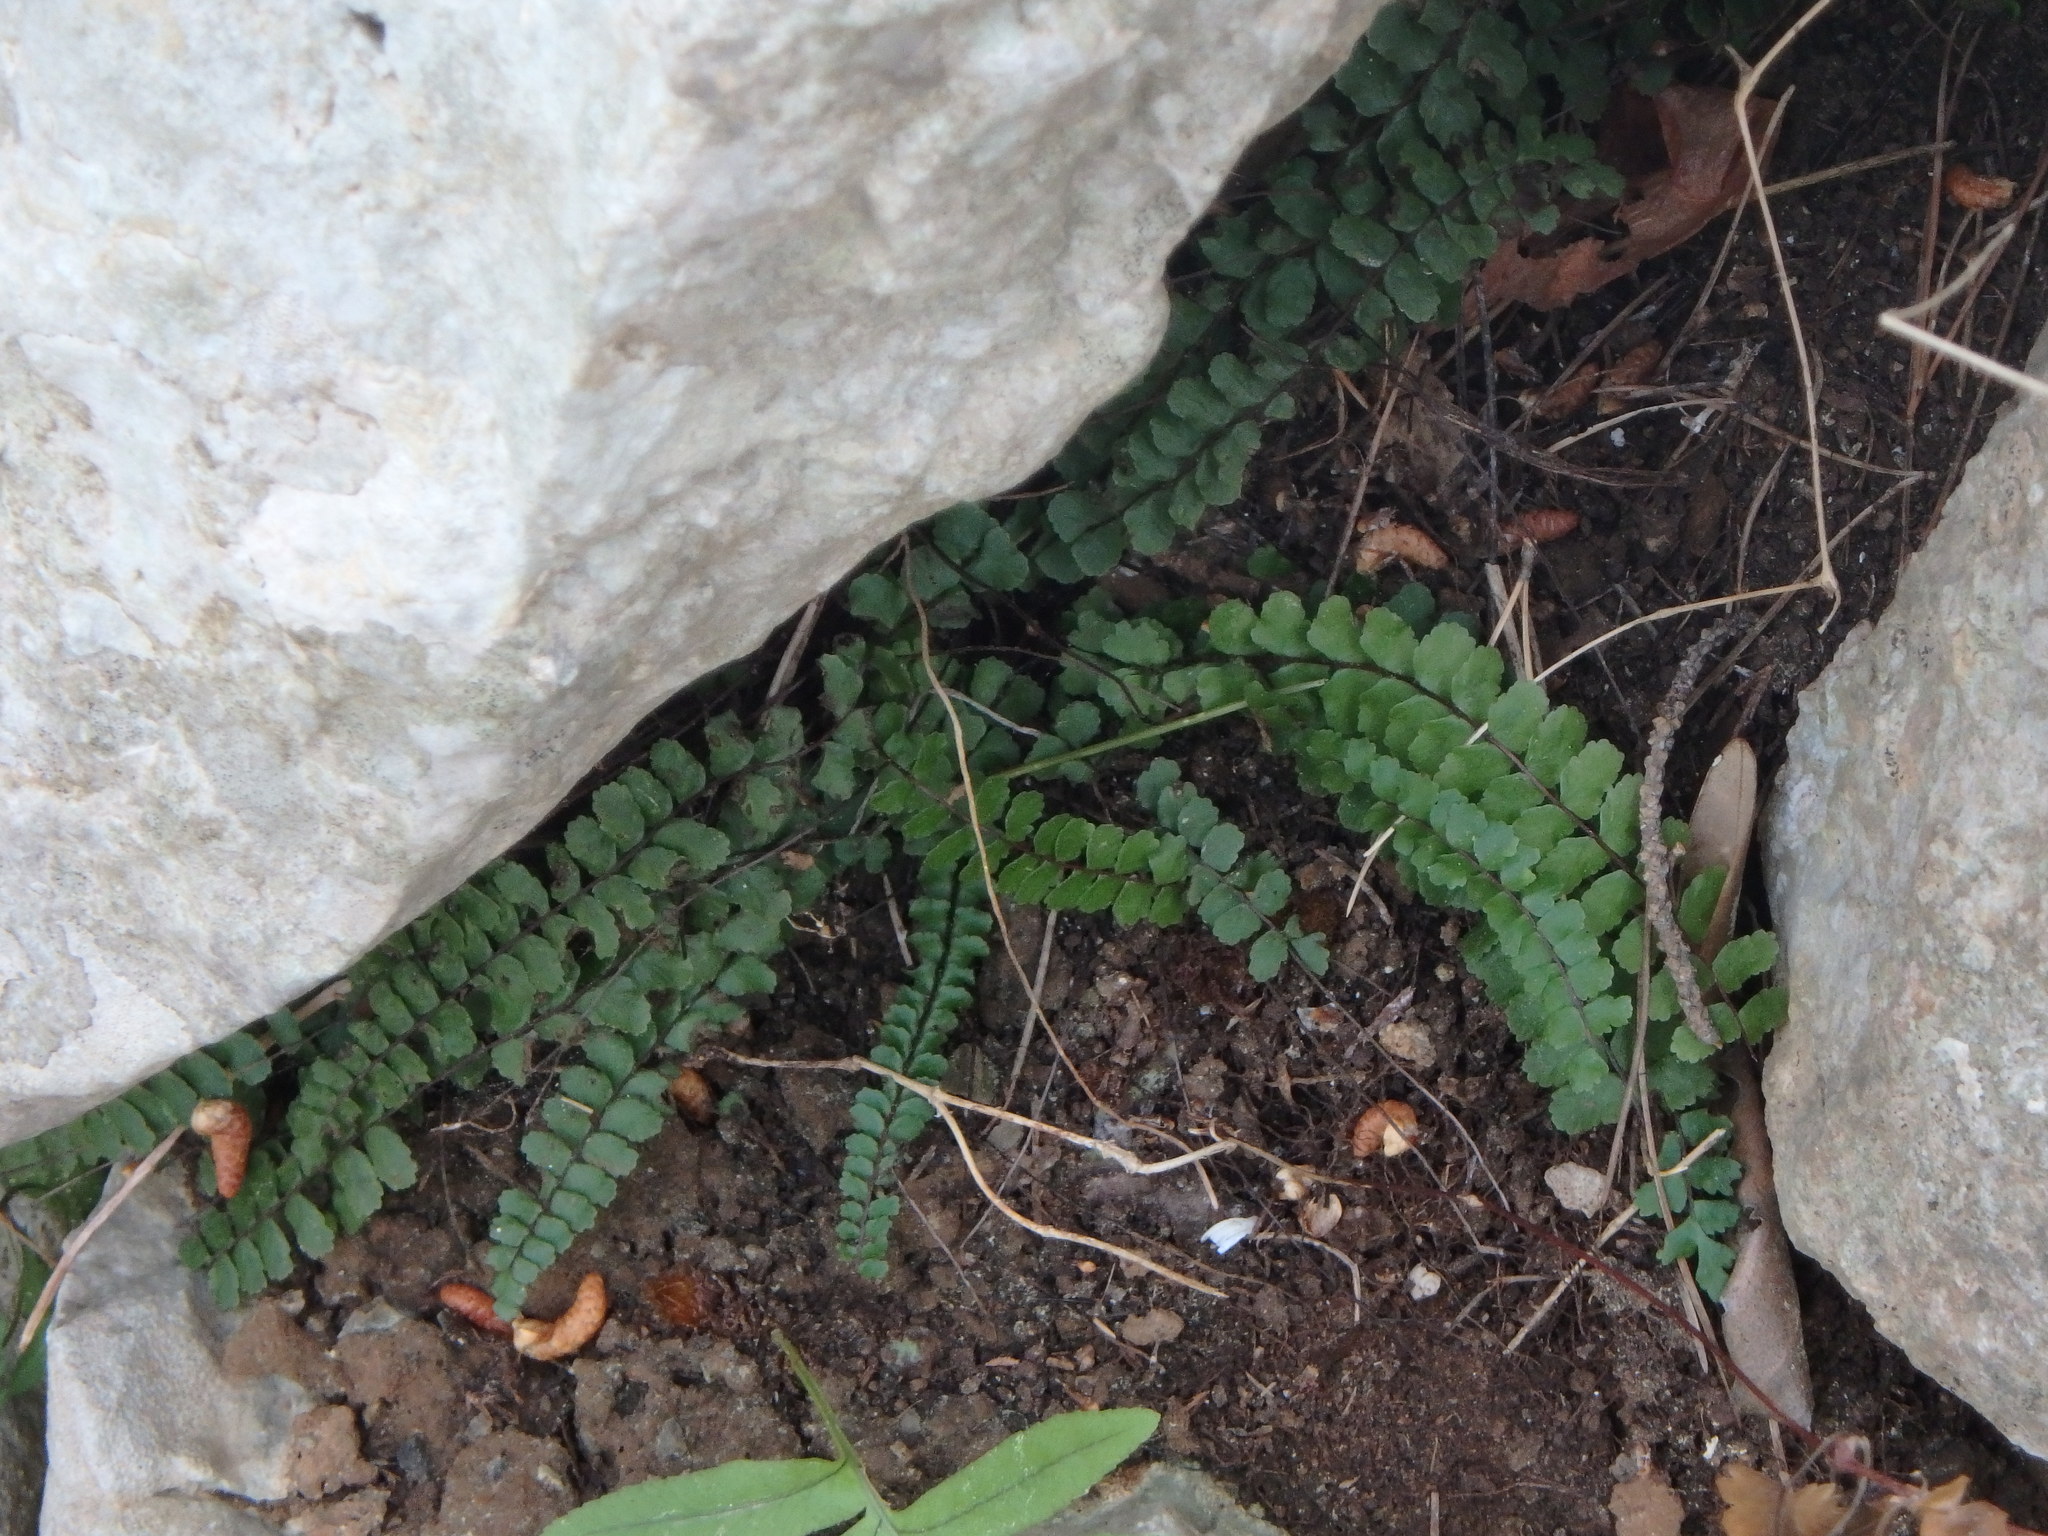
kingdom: Plantae
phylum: Tracheophyta
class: Polypodiopsida
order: Polypodiales
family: Aspleniaceae
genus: Asplenium
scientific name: Asplenium trichomanes
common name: Maidenhair spleenwort
